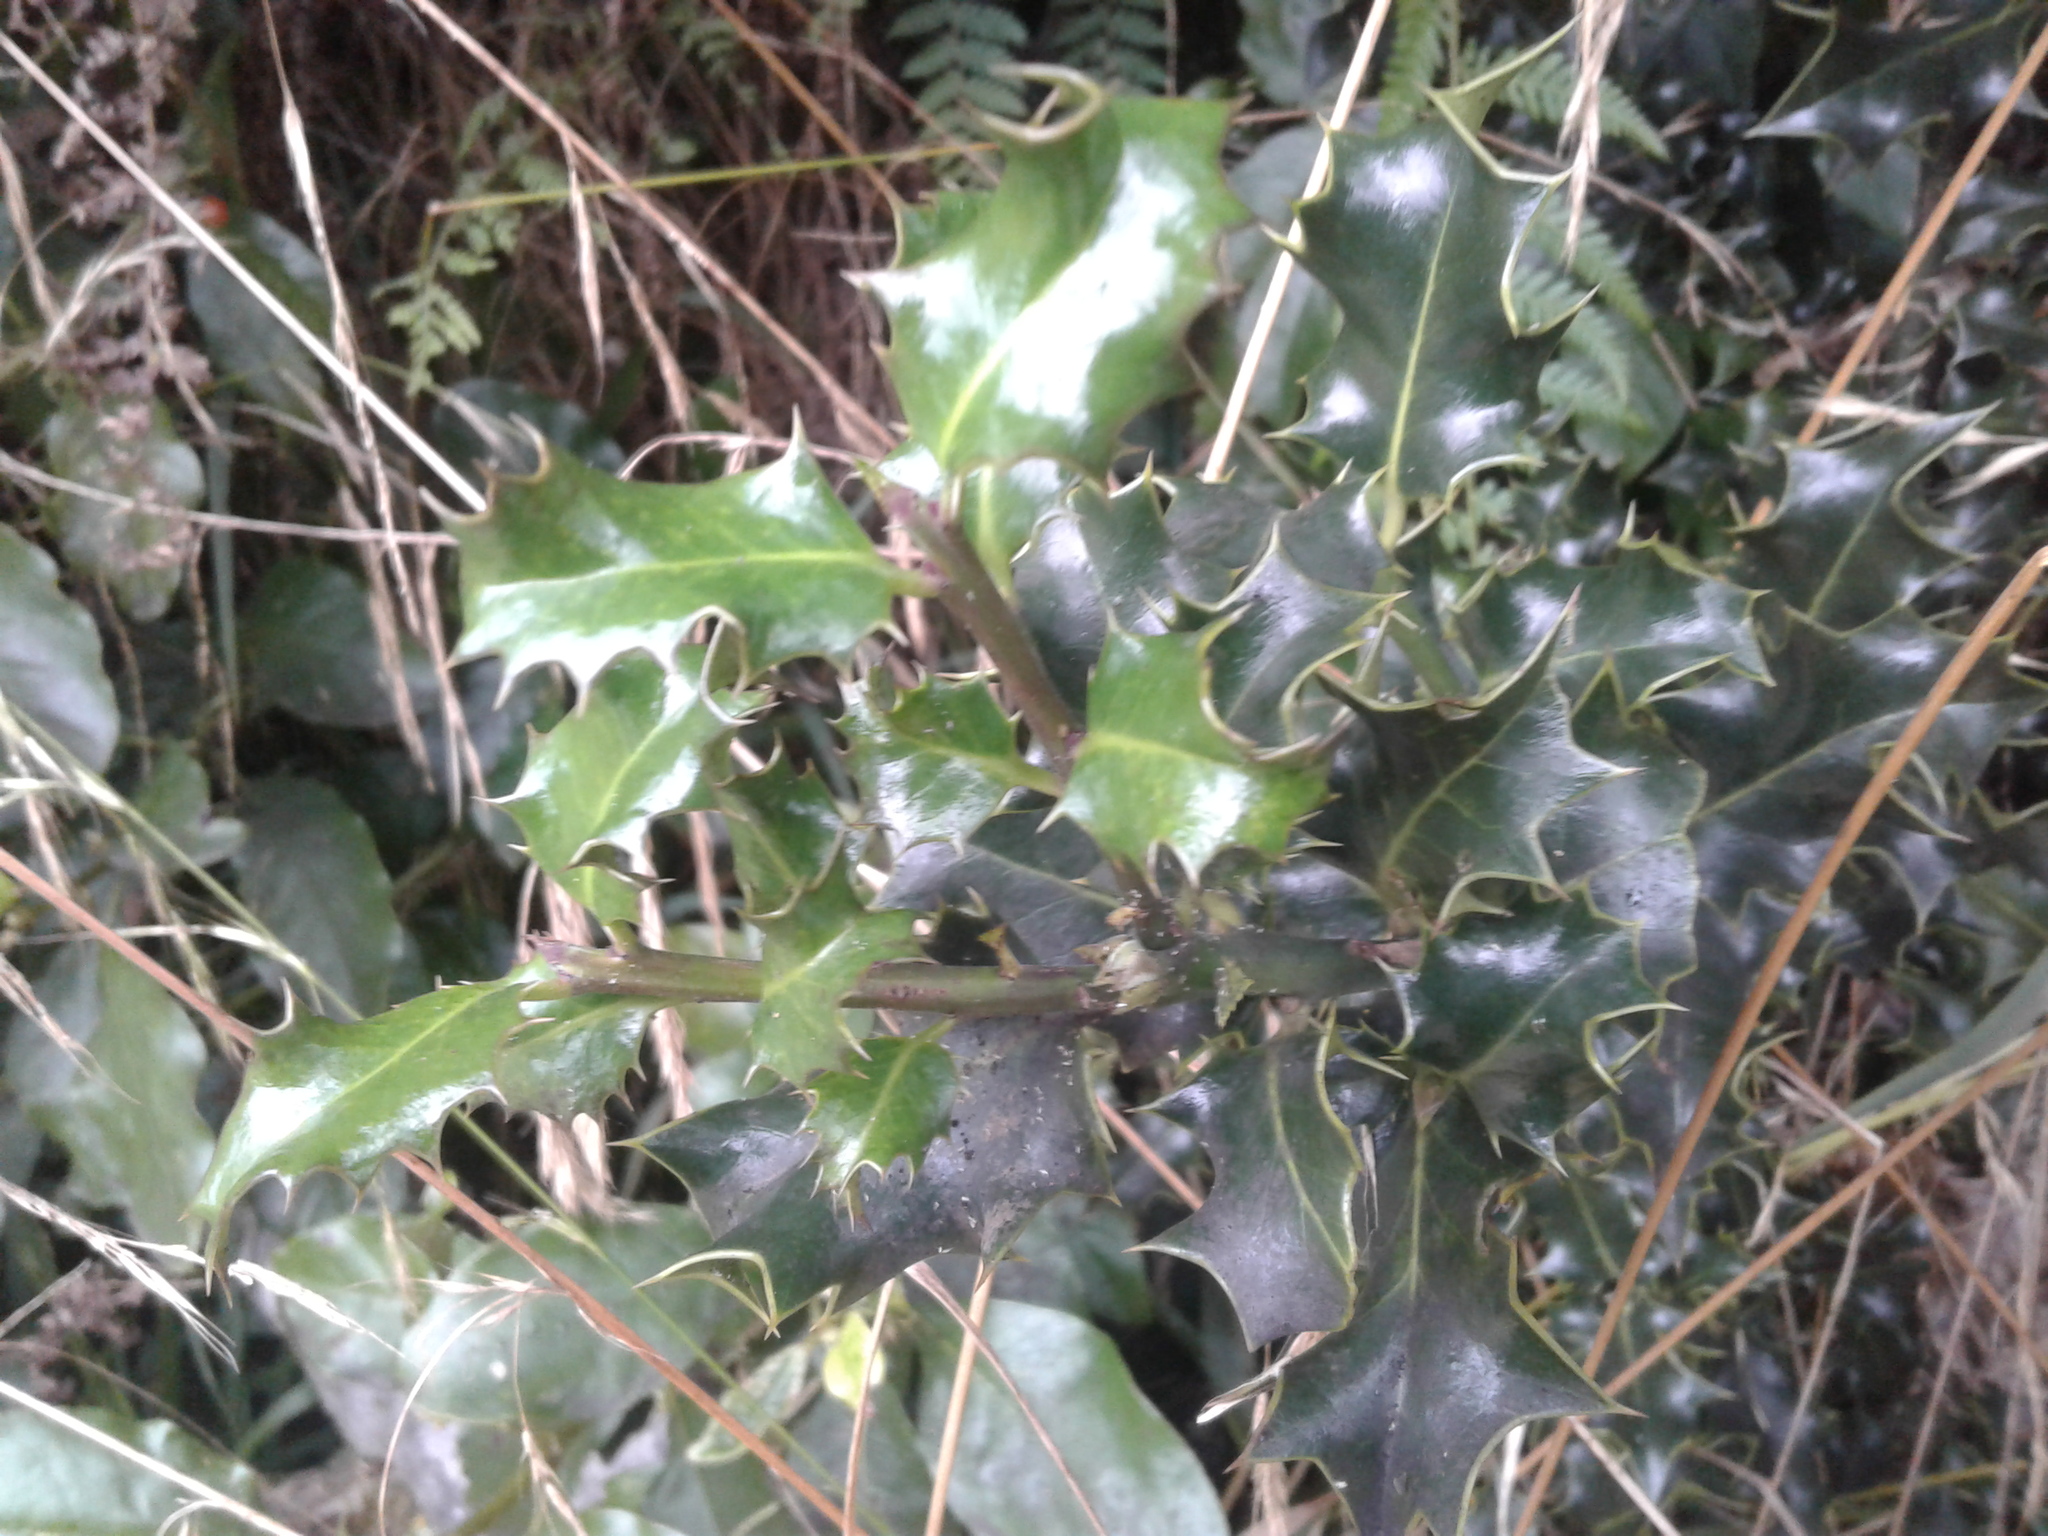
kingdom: Plantae
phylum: Tracheophyta
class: Magnoliopsida
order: Aquifoliales
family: Aquifoliaceae
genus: Ilex
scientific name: Ilex aquifolium
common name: English holly
